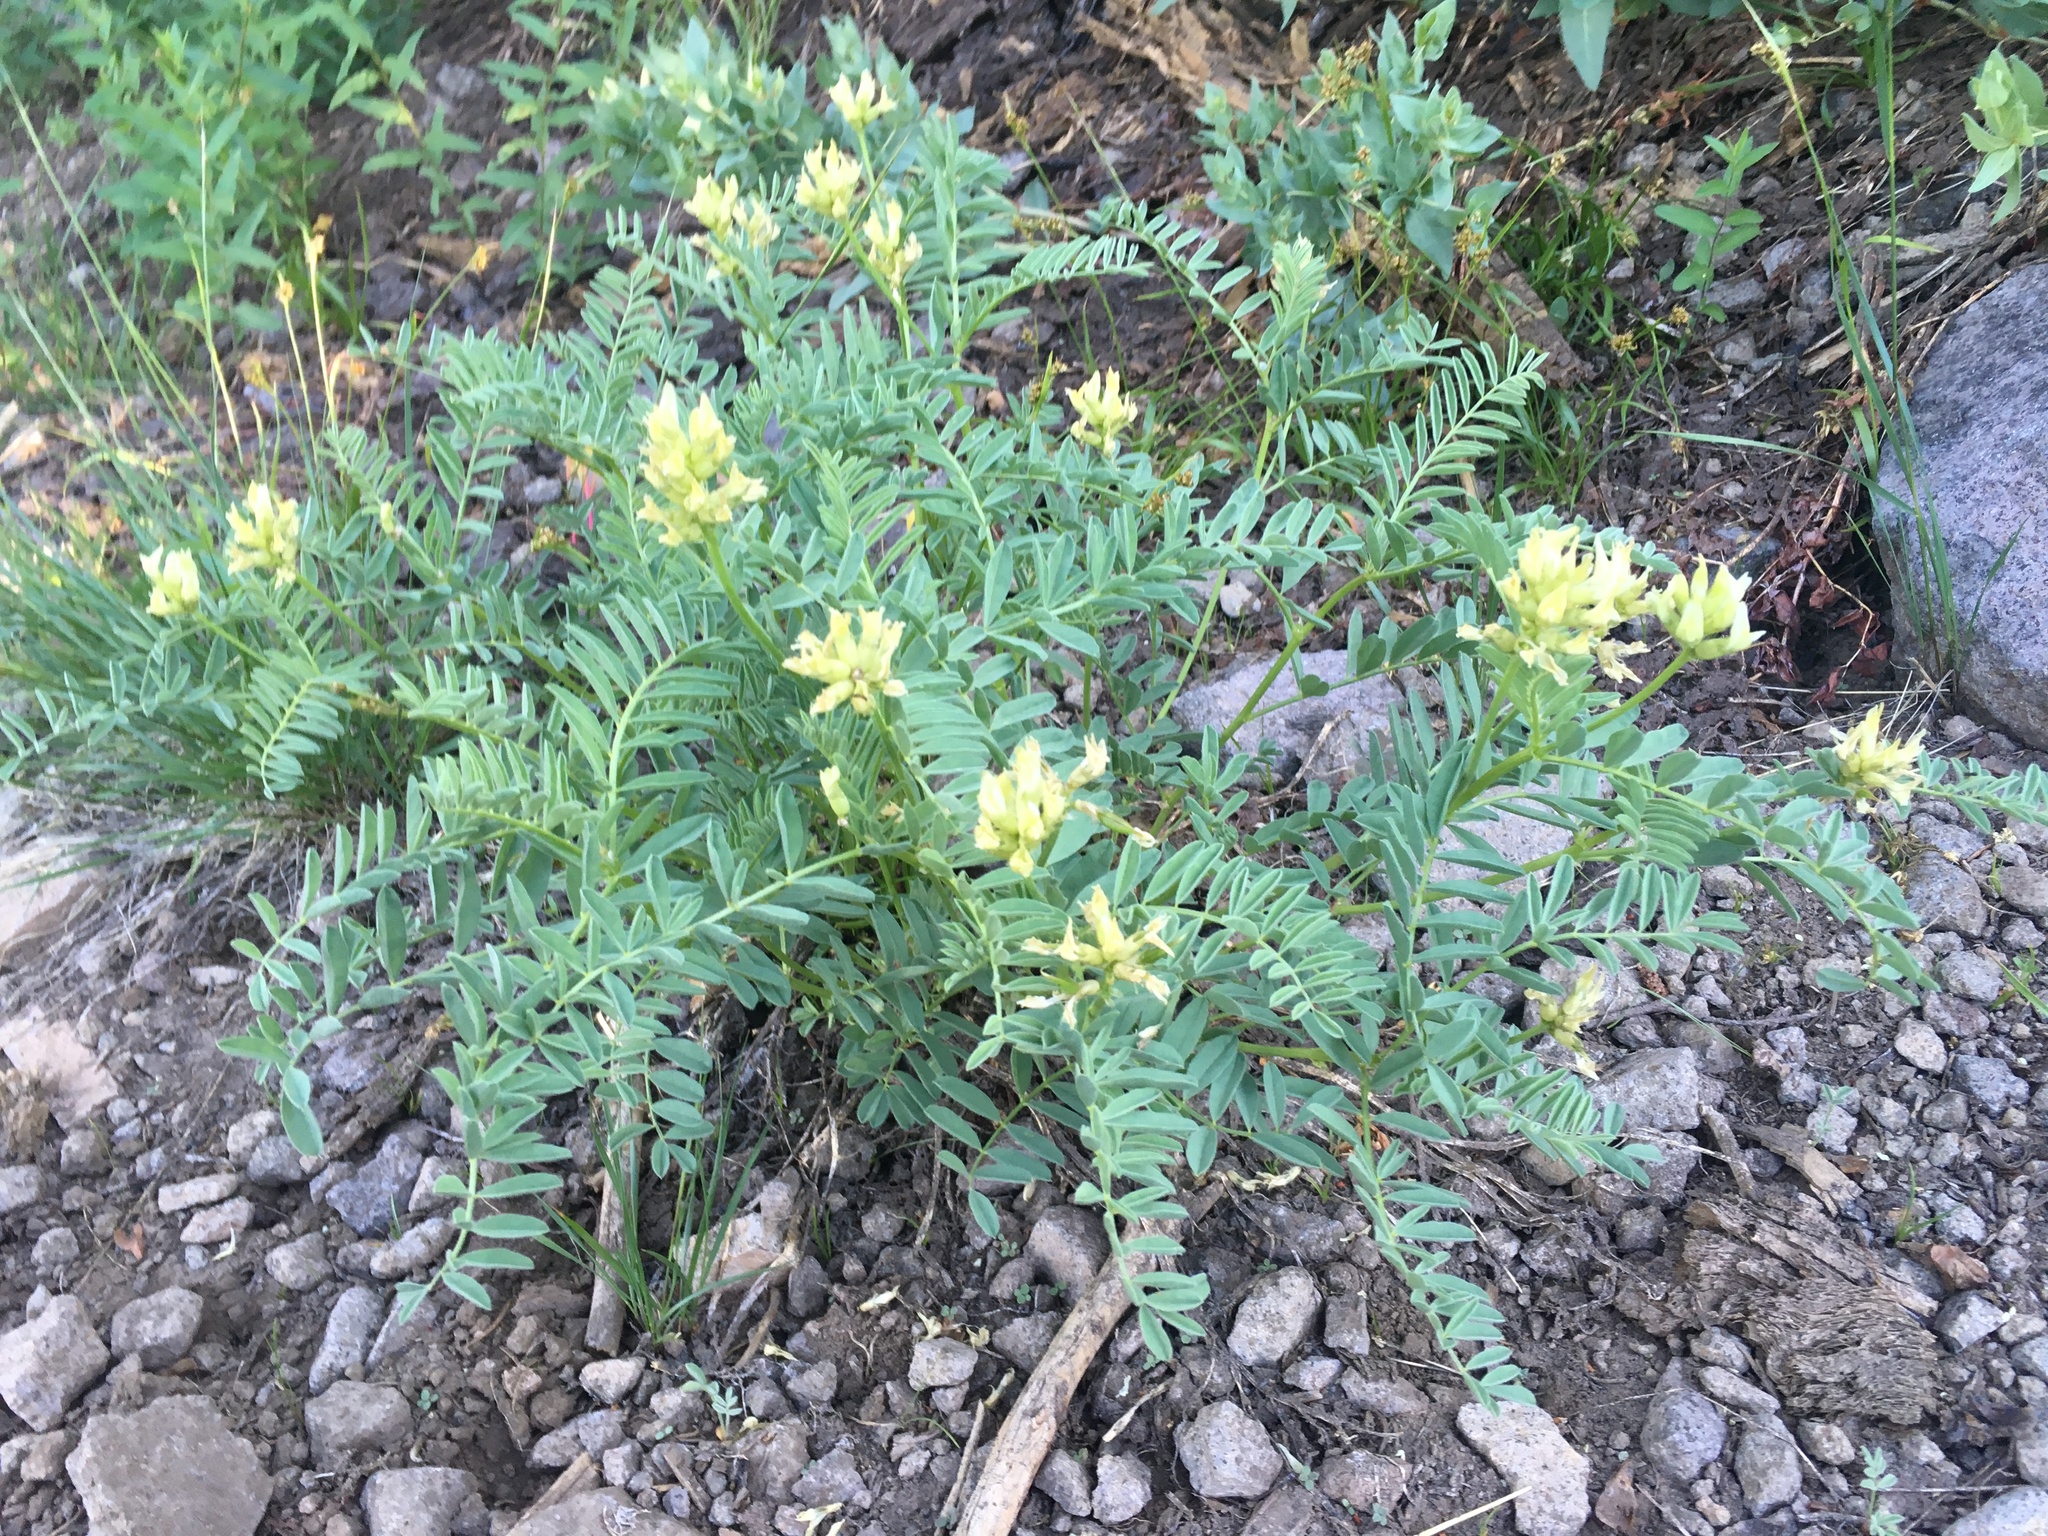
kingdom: Plantae
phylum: Tracheophyta
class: Magnoliopsida
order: Fabales
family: Fabaceae
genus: Astragalus
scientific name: Astragalus bolanderi
